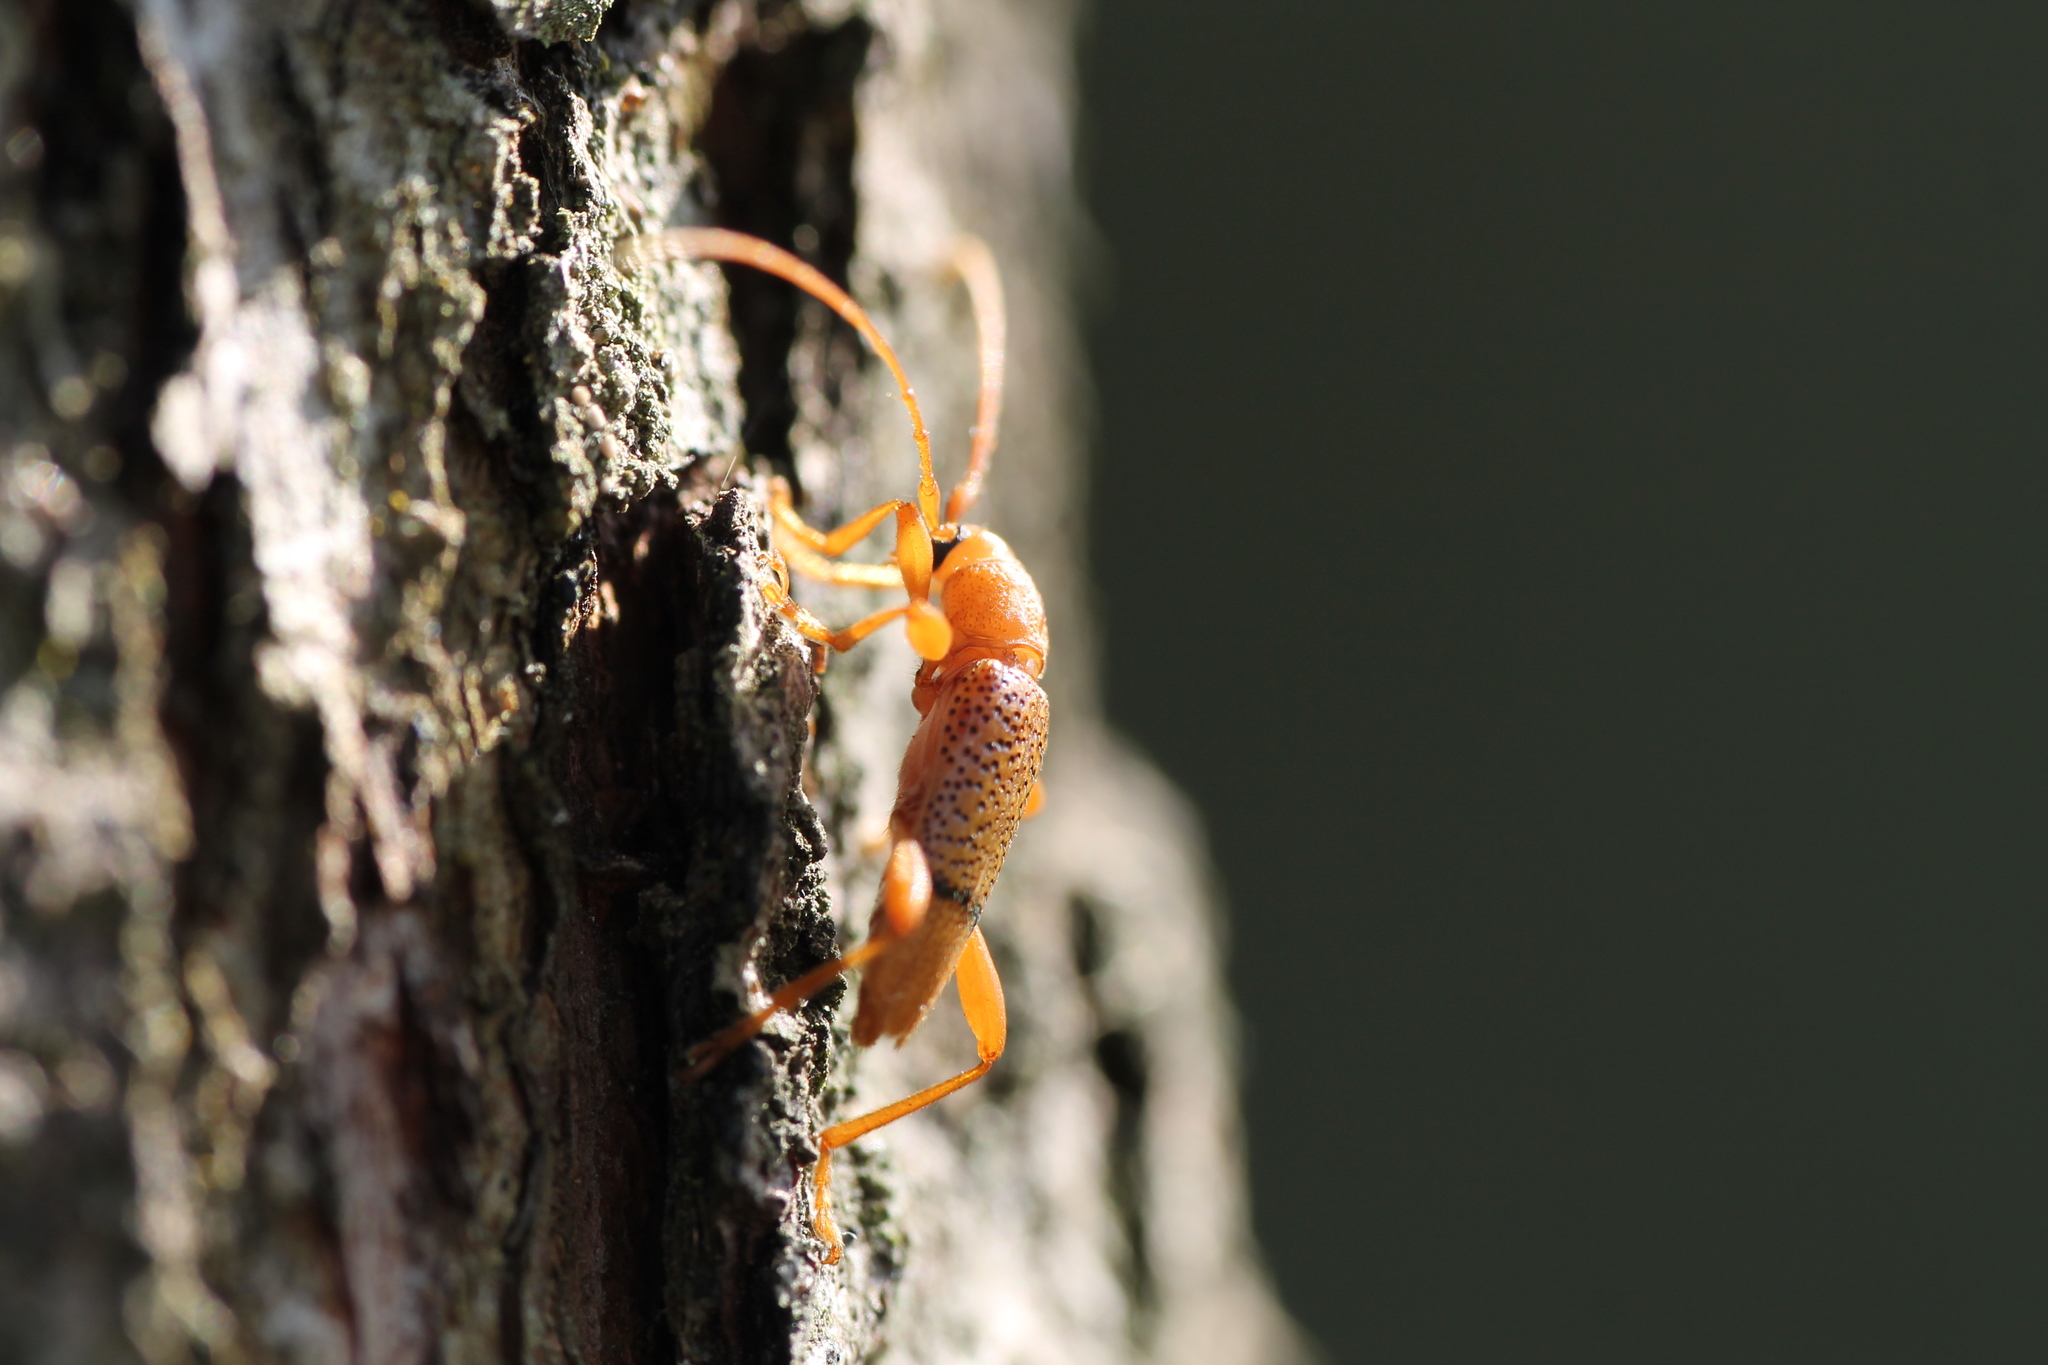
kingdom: Animalia
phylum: Arthropoda
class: Insecta
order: Coleoptera
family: Cerambycidae
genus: Xuthodes
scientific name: Xuthodes punctipennis
